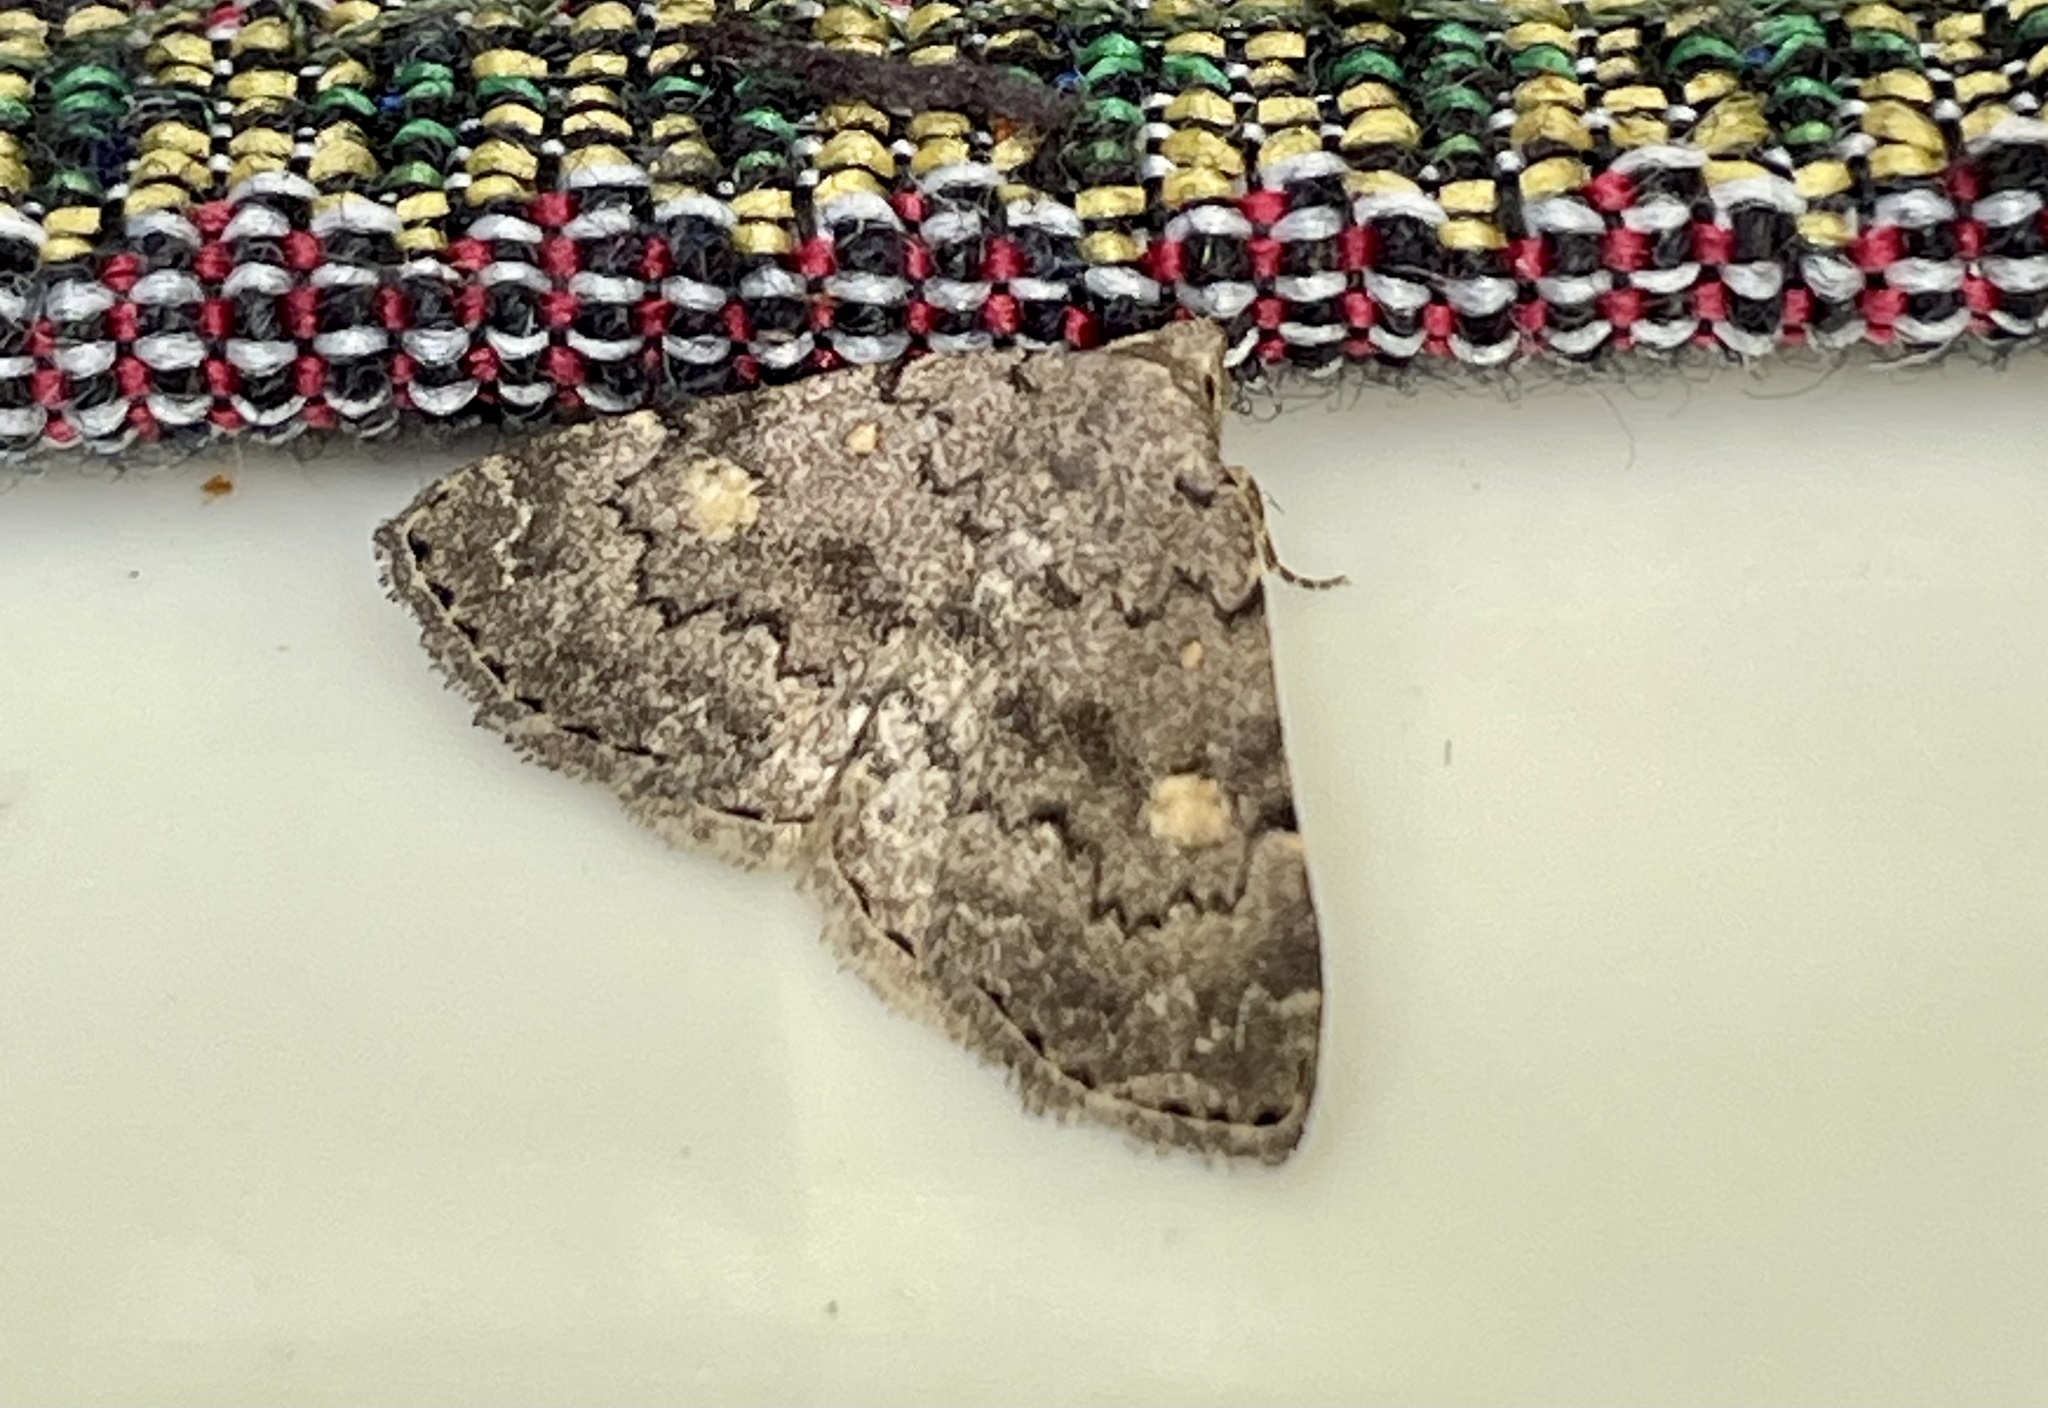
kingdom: Animalia
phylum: Arthropoda
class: Insecta
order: Lepidoptera
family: Erebidae
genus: Idia
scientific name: Idia aemula
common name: Common idia moth
